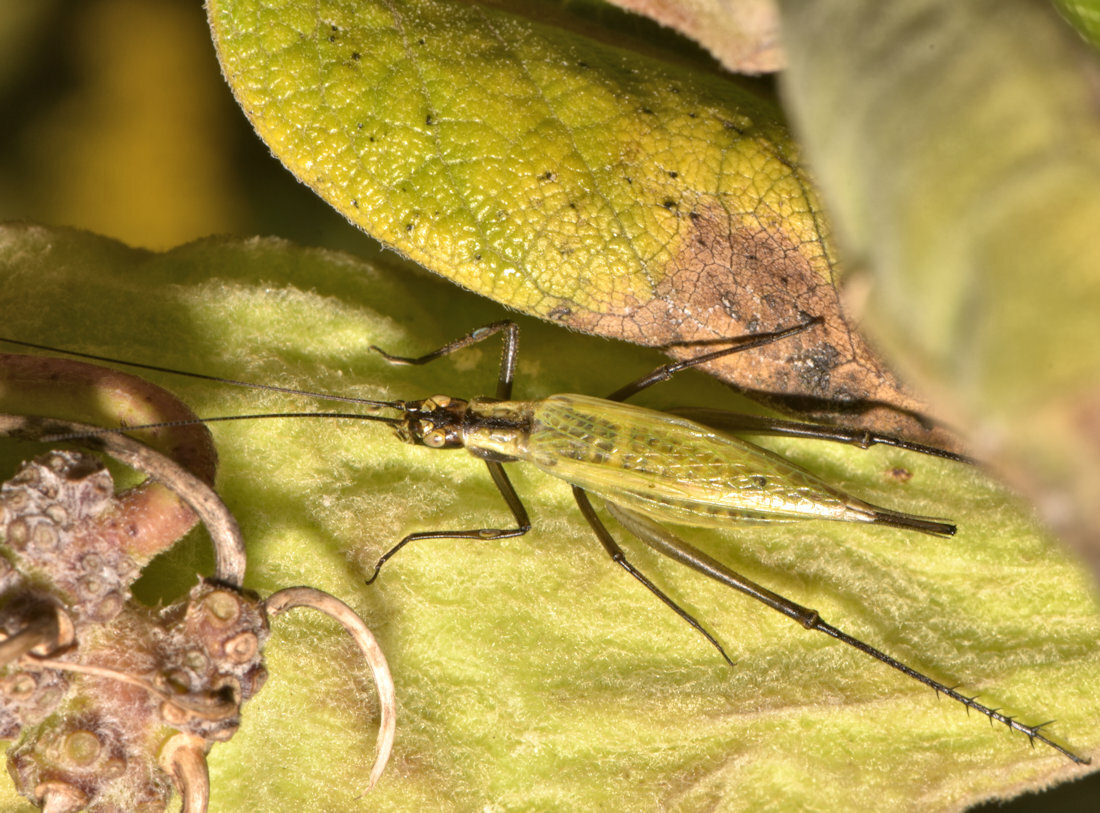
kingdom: Animalia
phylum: Arthropoda
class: Insecta
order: Orthoptera
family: Gryllidae
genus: Oecanthus
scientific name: Oecanthus nigricornis
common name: Black-horned tree cricket
